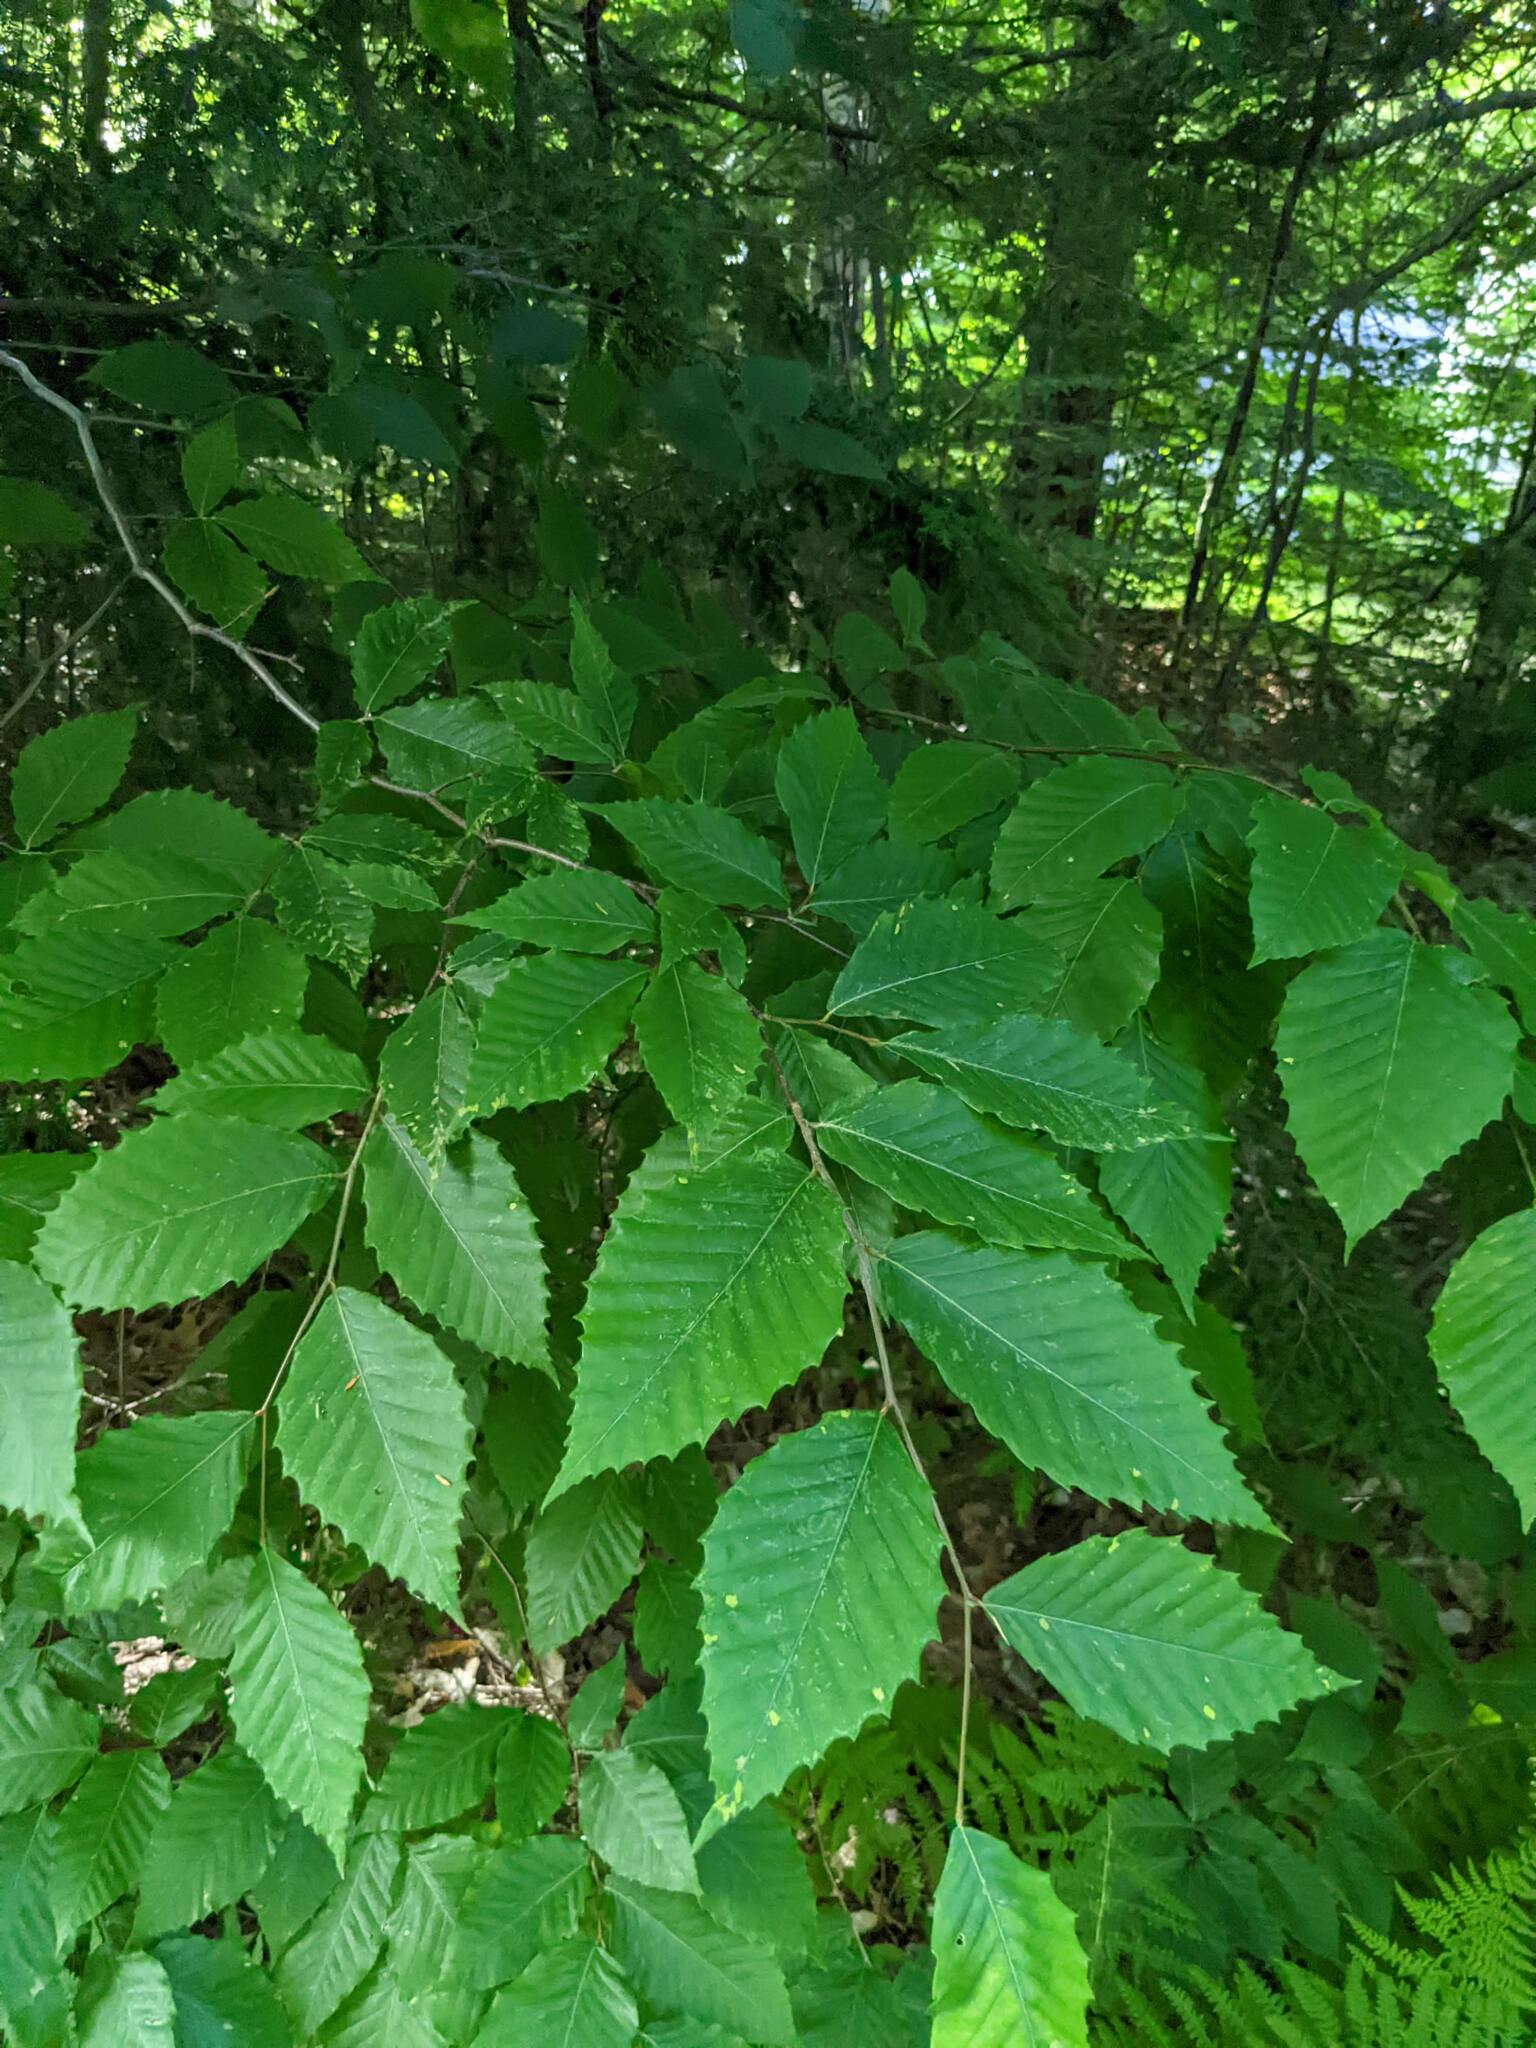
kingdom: Plantae
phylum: Tracheophyta
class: Magnoliopsida
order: Fagales
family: Fagaceae
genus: Fagus
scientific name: Fagus grandifolia
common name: American beech
